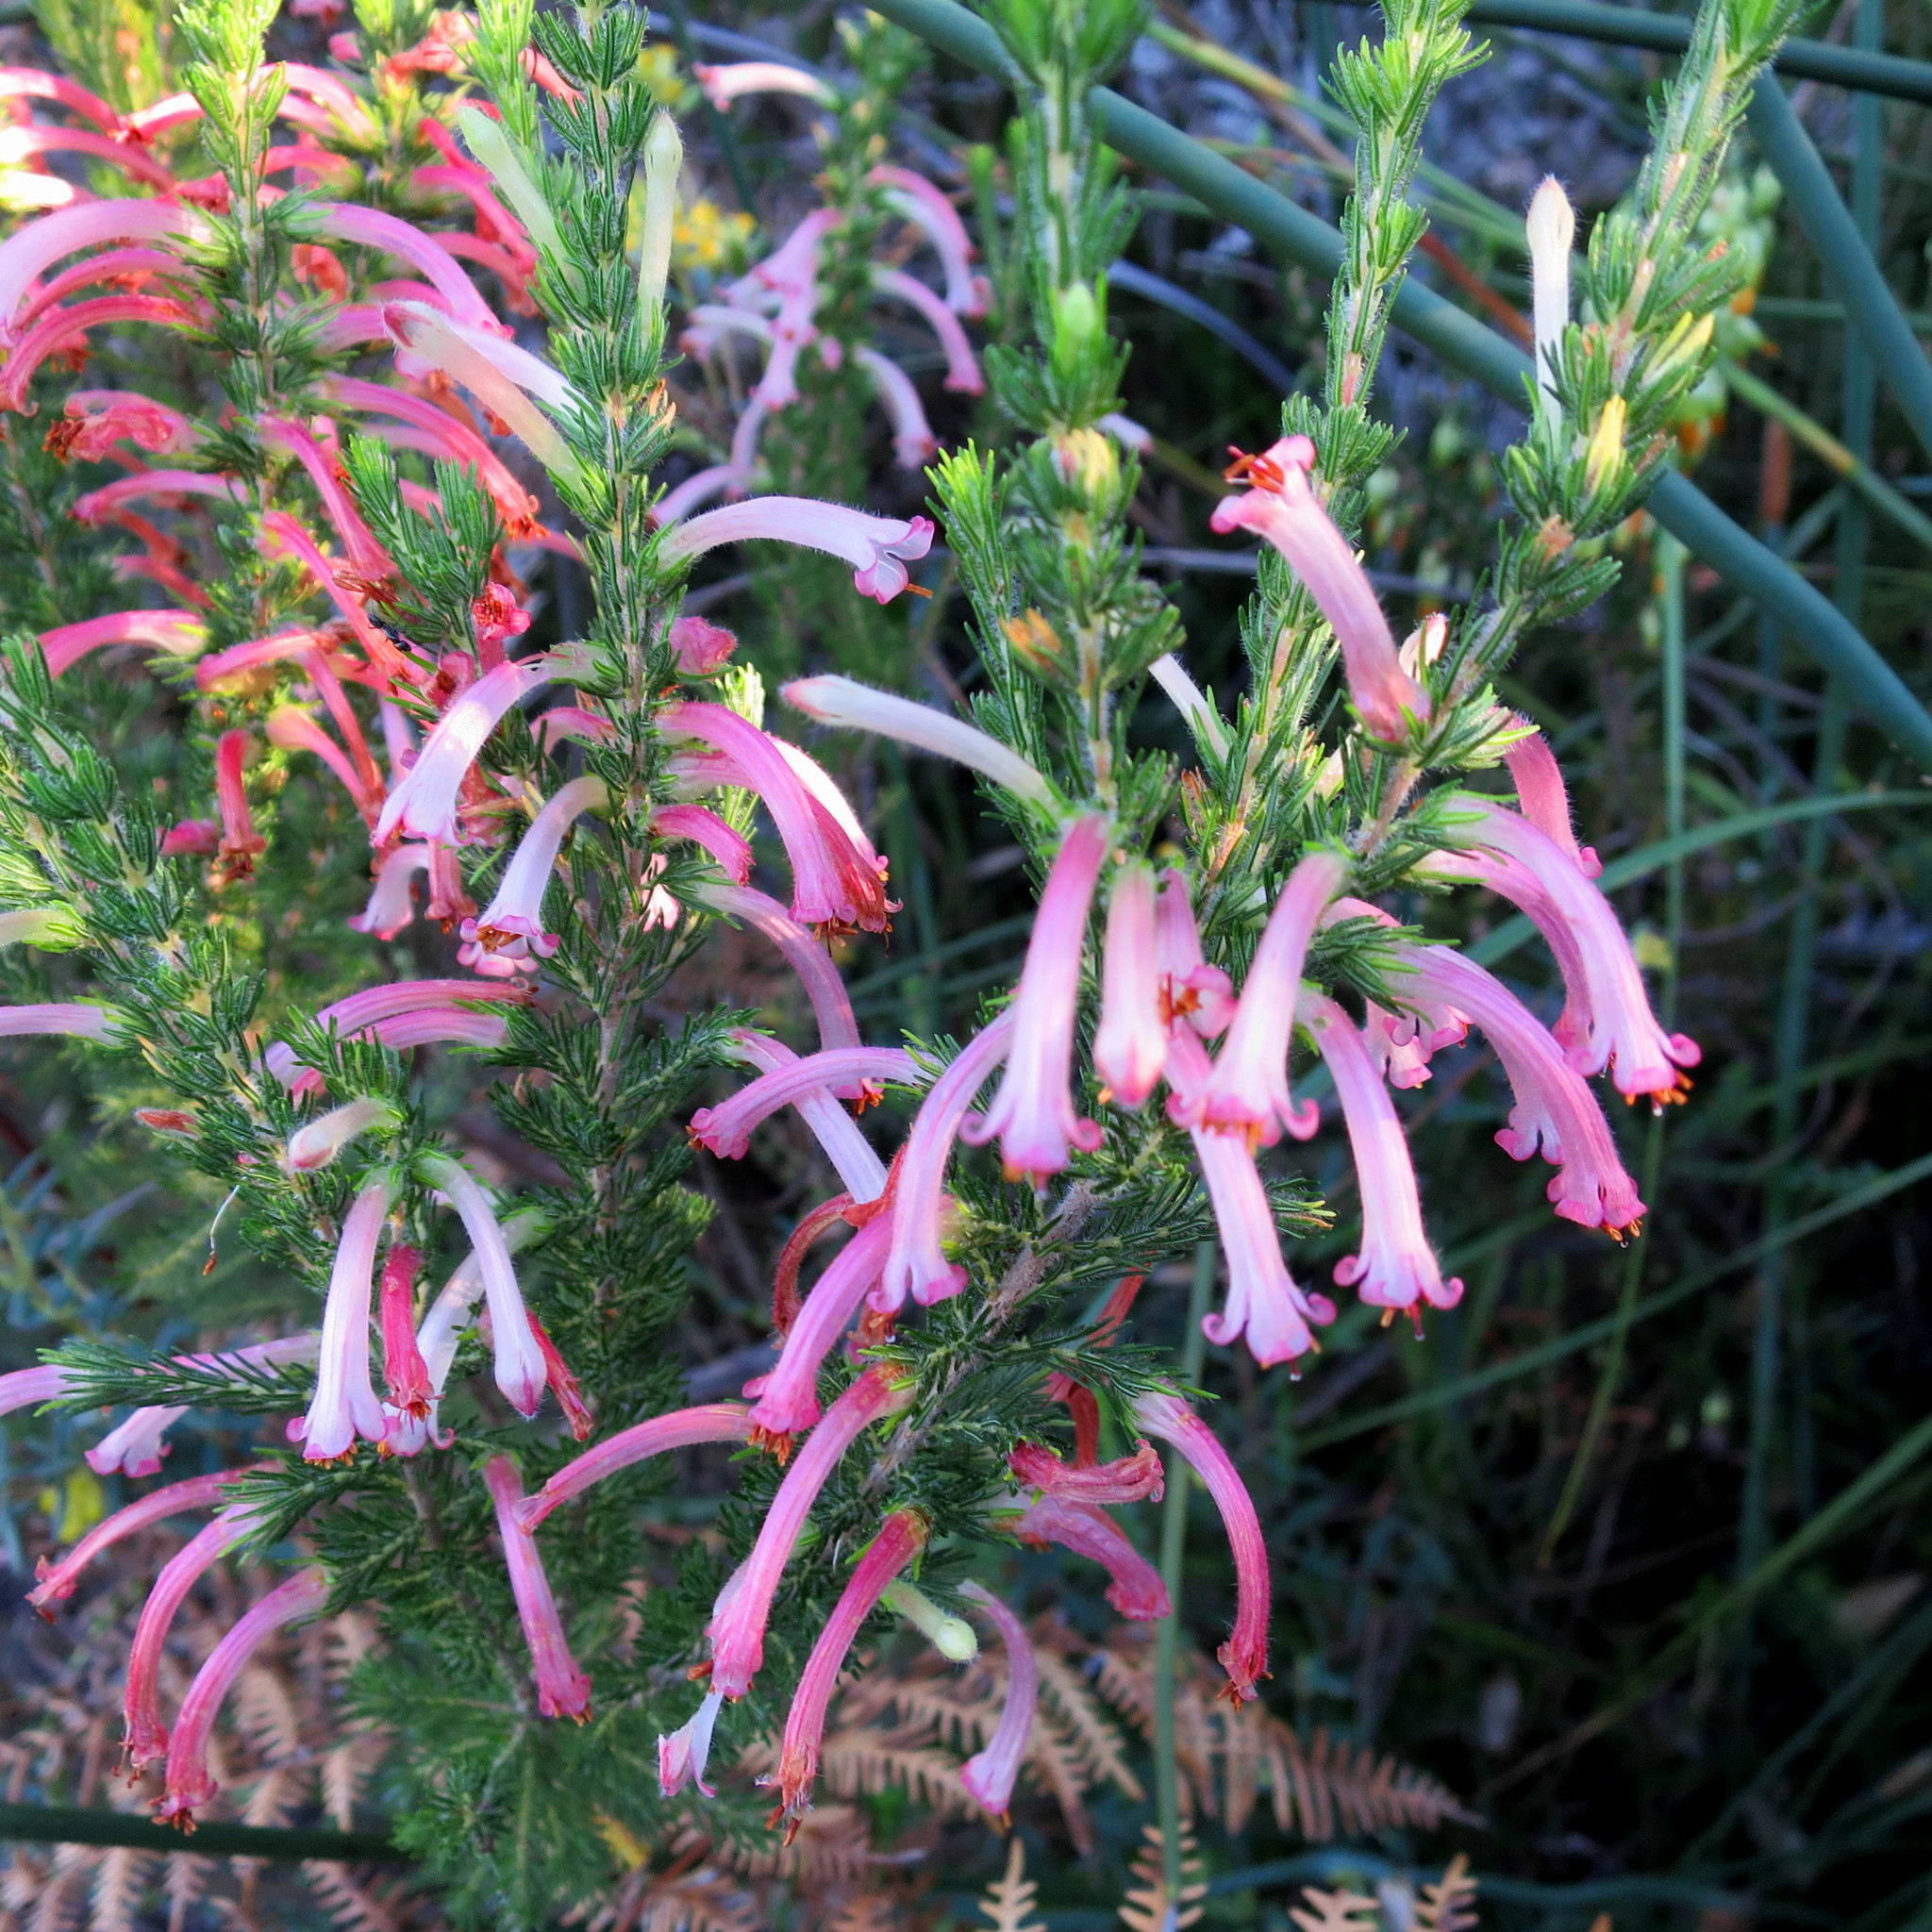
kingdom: Plantae
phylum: Tracheophyta
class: Magnoliopsida
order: Ericales
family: Ericaceae
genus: Erica
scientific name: Erica curviflora
